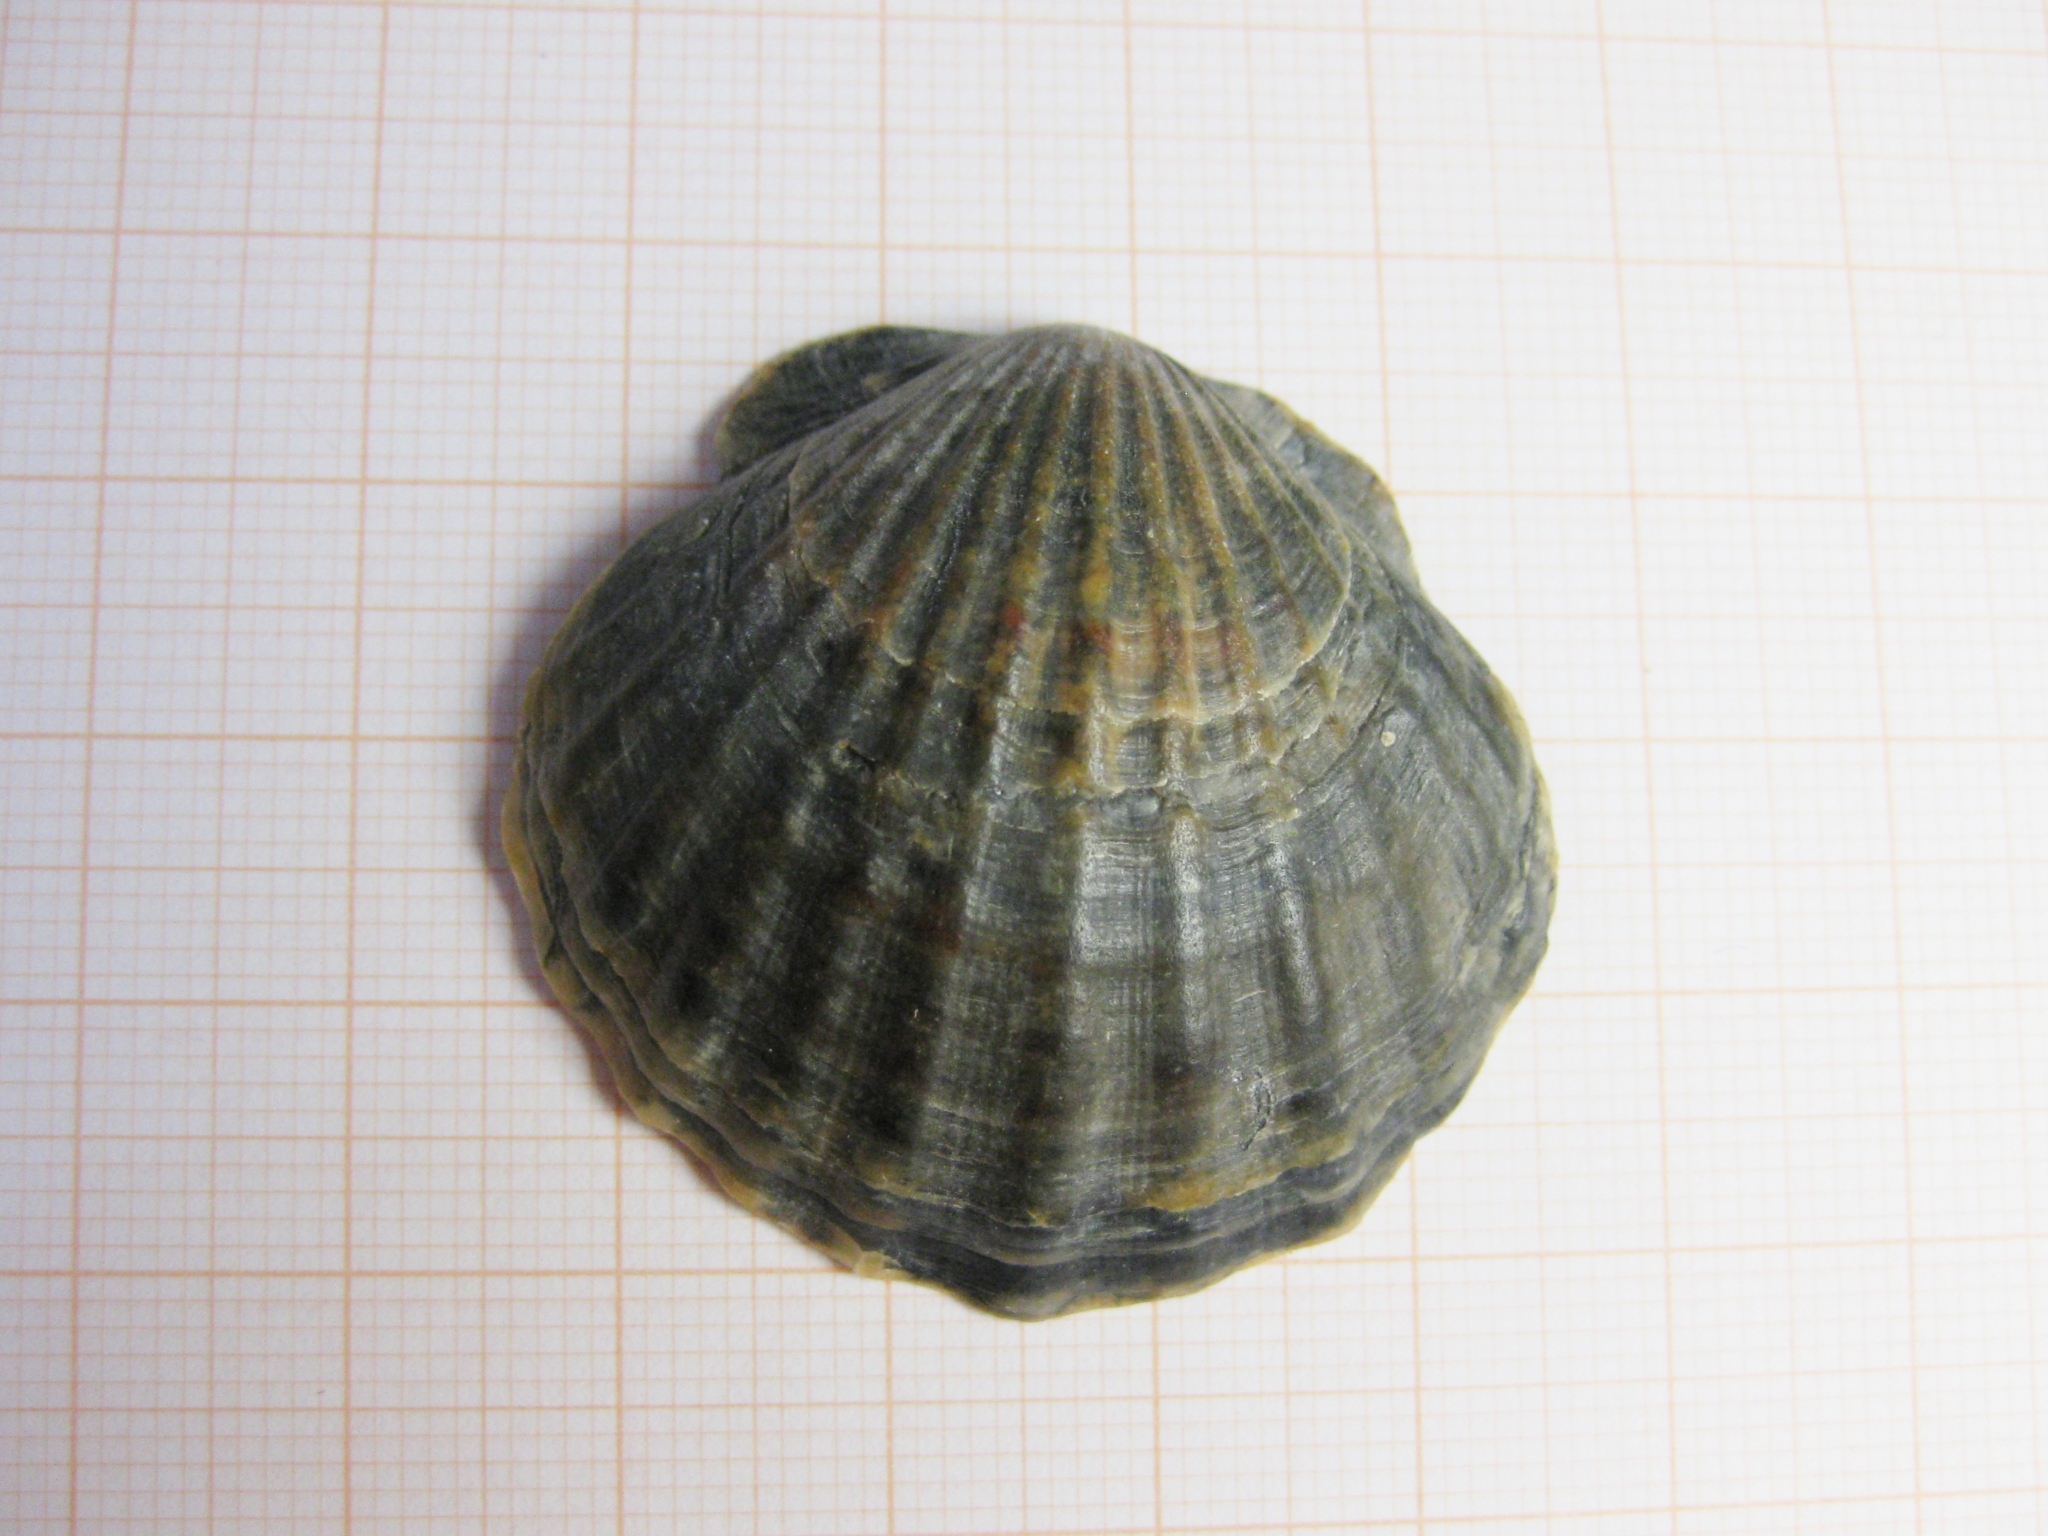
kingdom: Animalia
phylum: Mollusca
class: Bivalvia
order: Pectinida
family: Pectinidae
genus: Flexopecten
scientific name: Flexopecten glaber
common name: Smooth scallop
